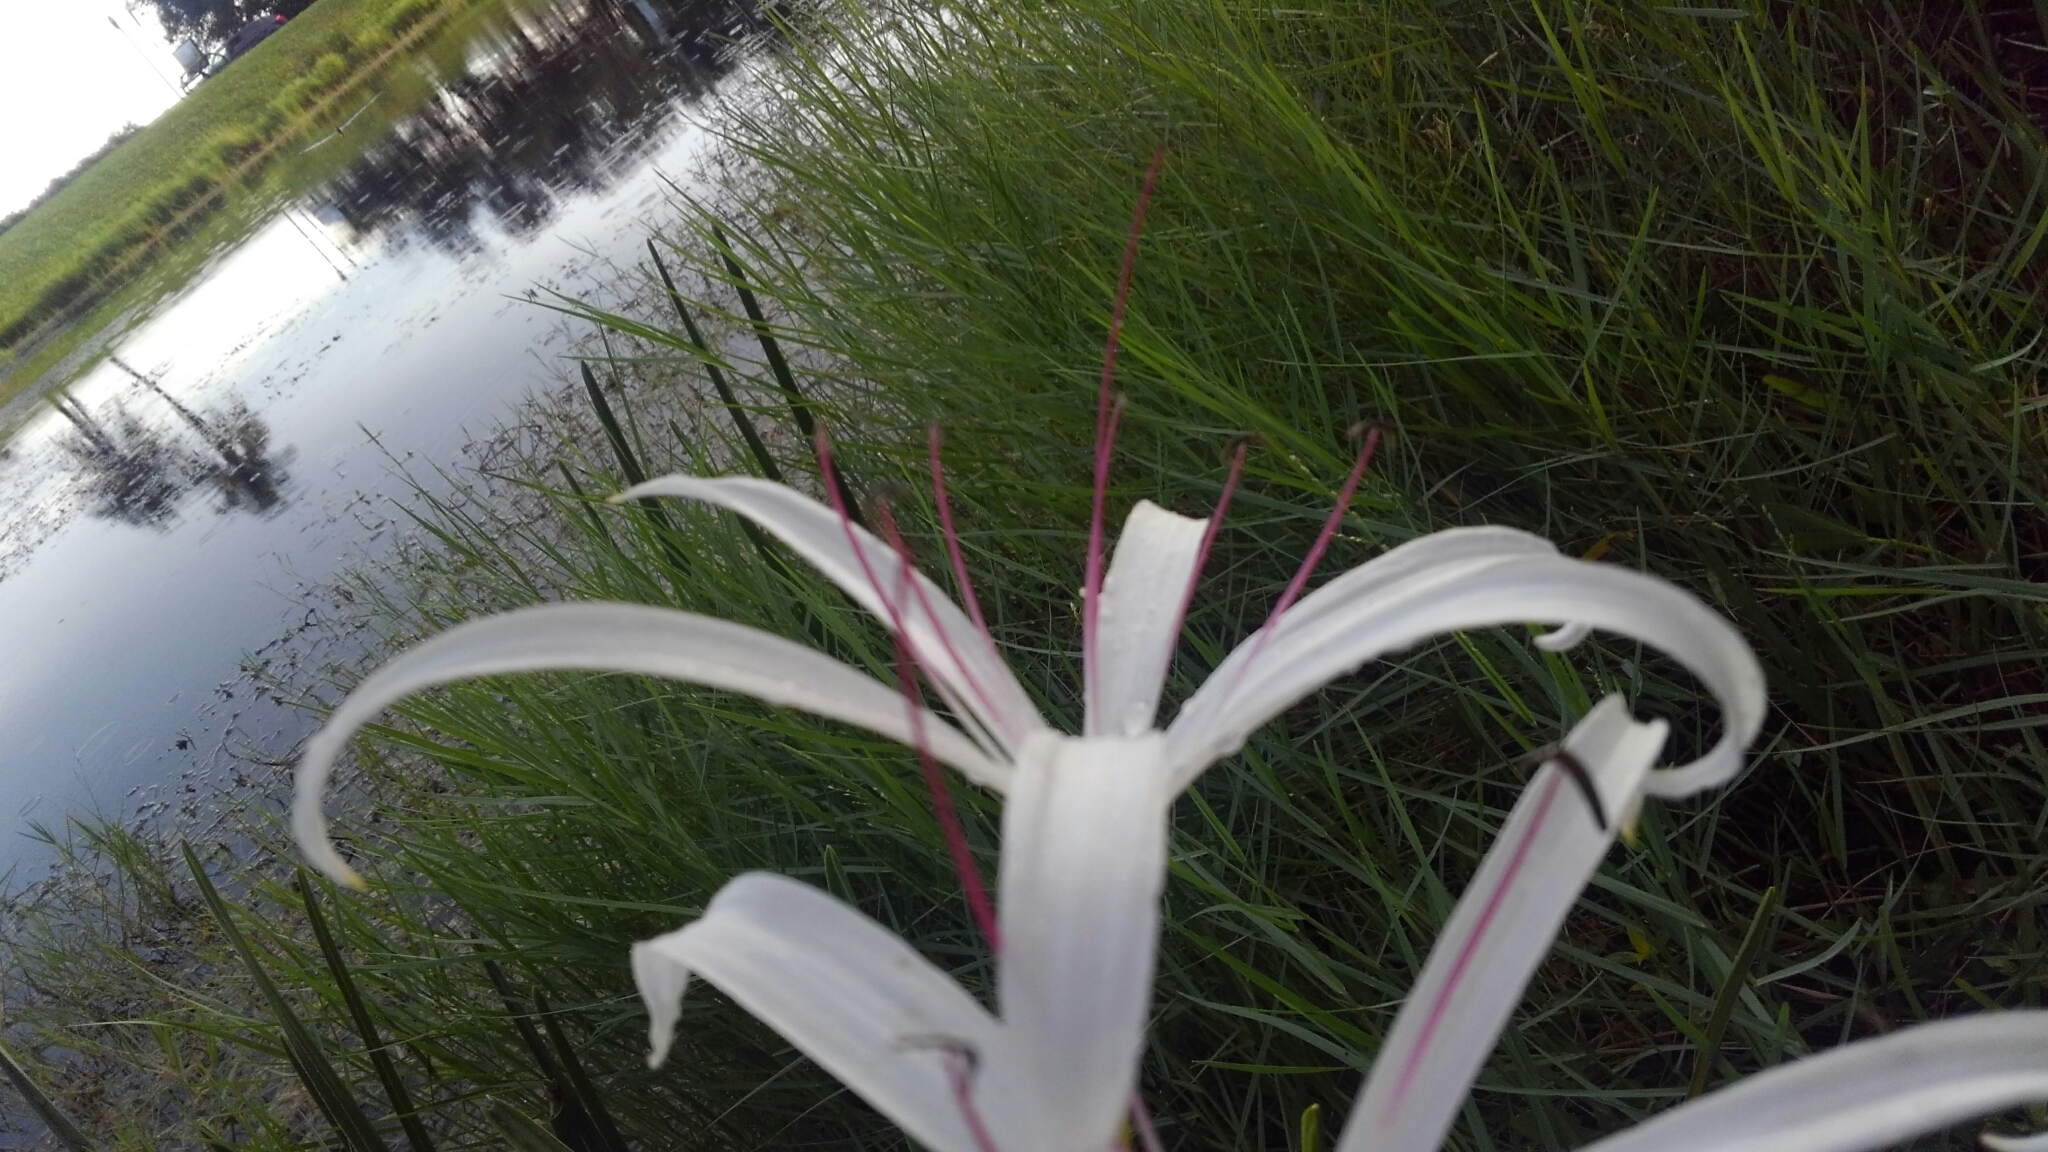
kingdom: Plantae
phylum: Tracheophyta
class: Liliopsida
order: Asparagales
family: Amaryllidaceae
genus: Crinum
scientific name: Crinum americanum
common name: Florida swamp-lily
